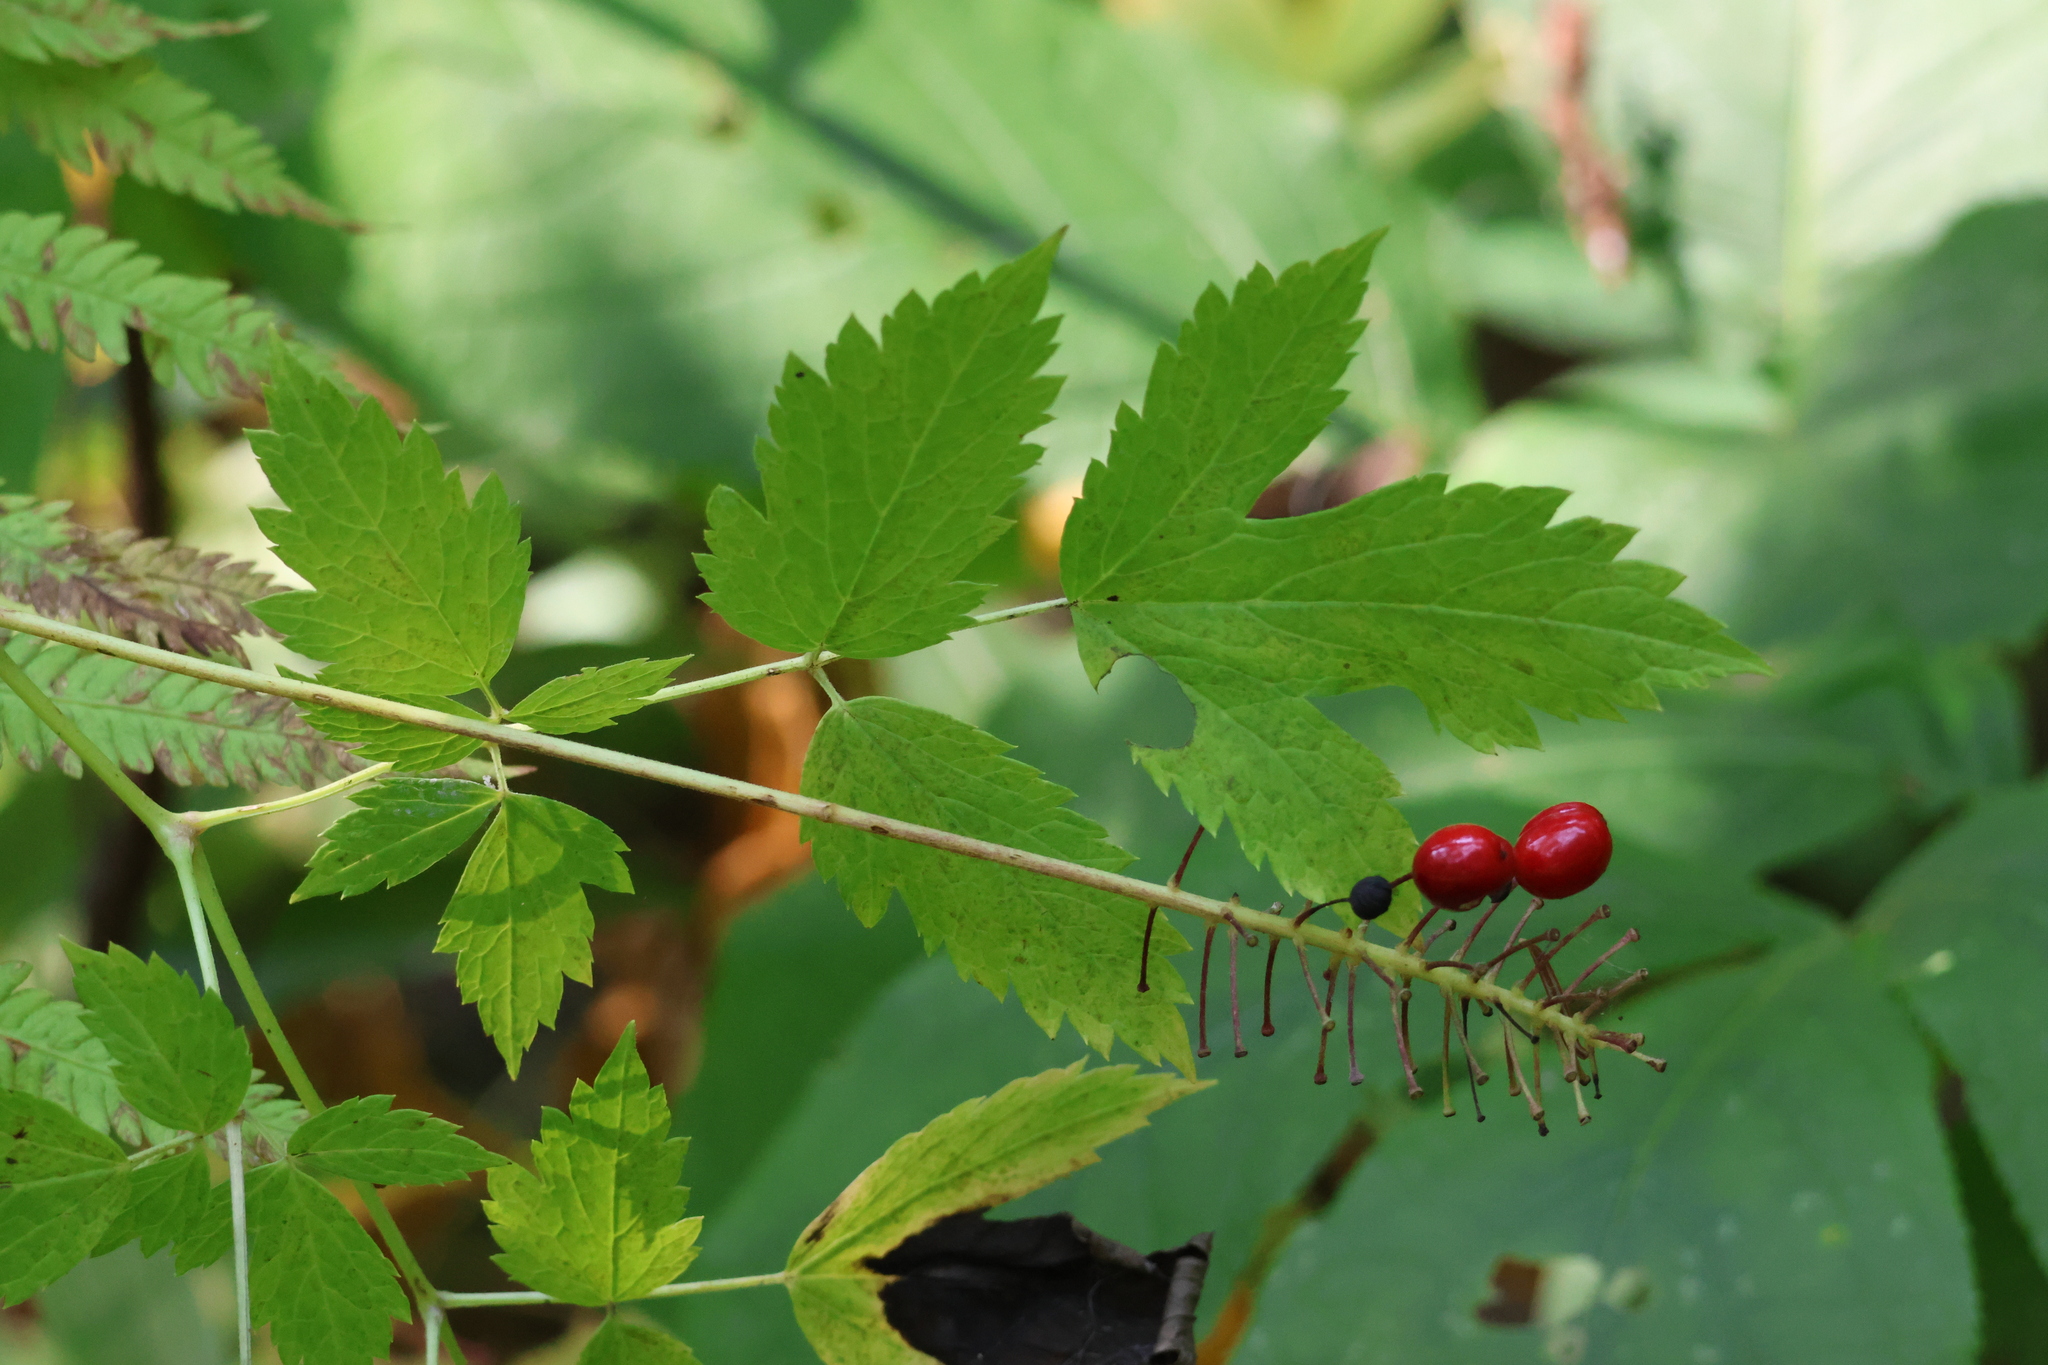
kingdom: Plantae
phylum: Tracheophyta
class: Magnoliopsida
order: Ranunculales
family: Ranunculaceae
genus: Actaea
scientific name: Actaea rubra
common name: Red baneberry
